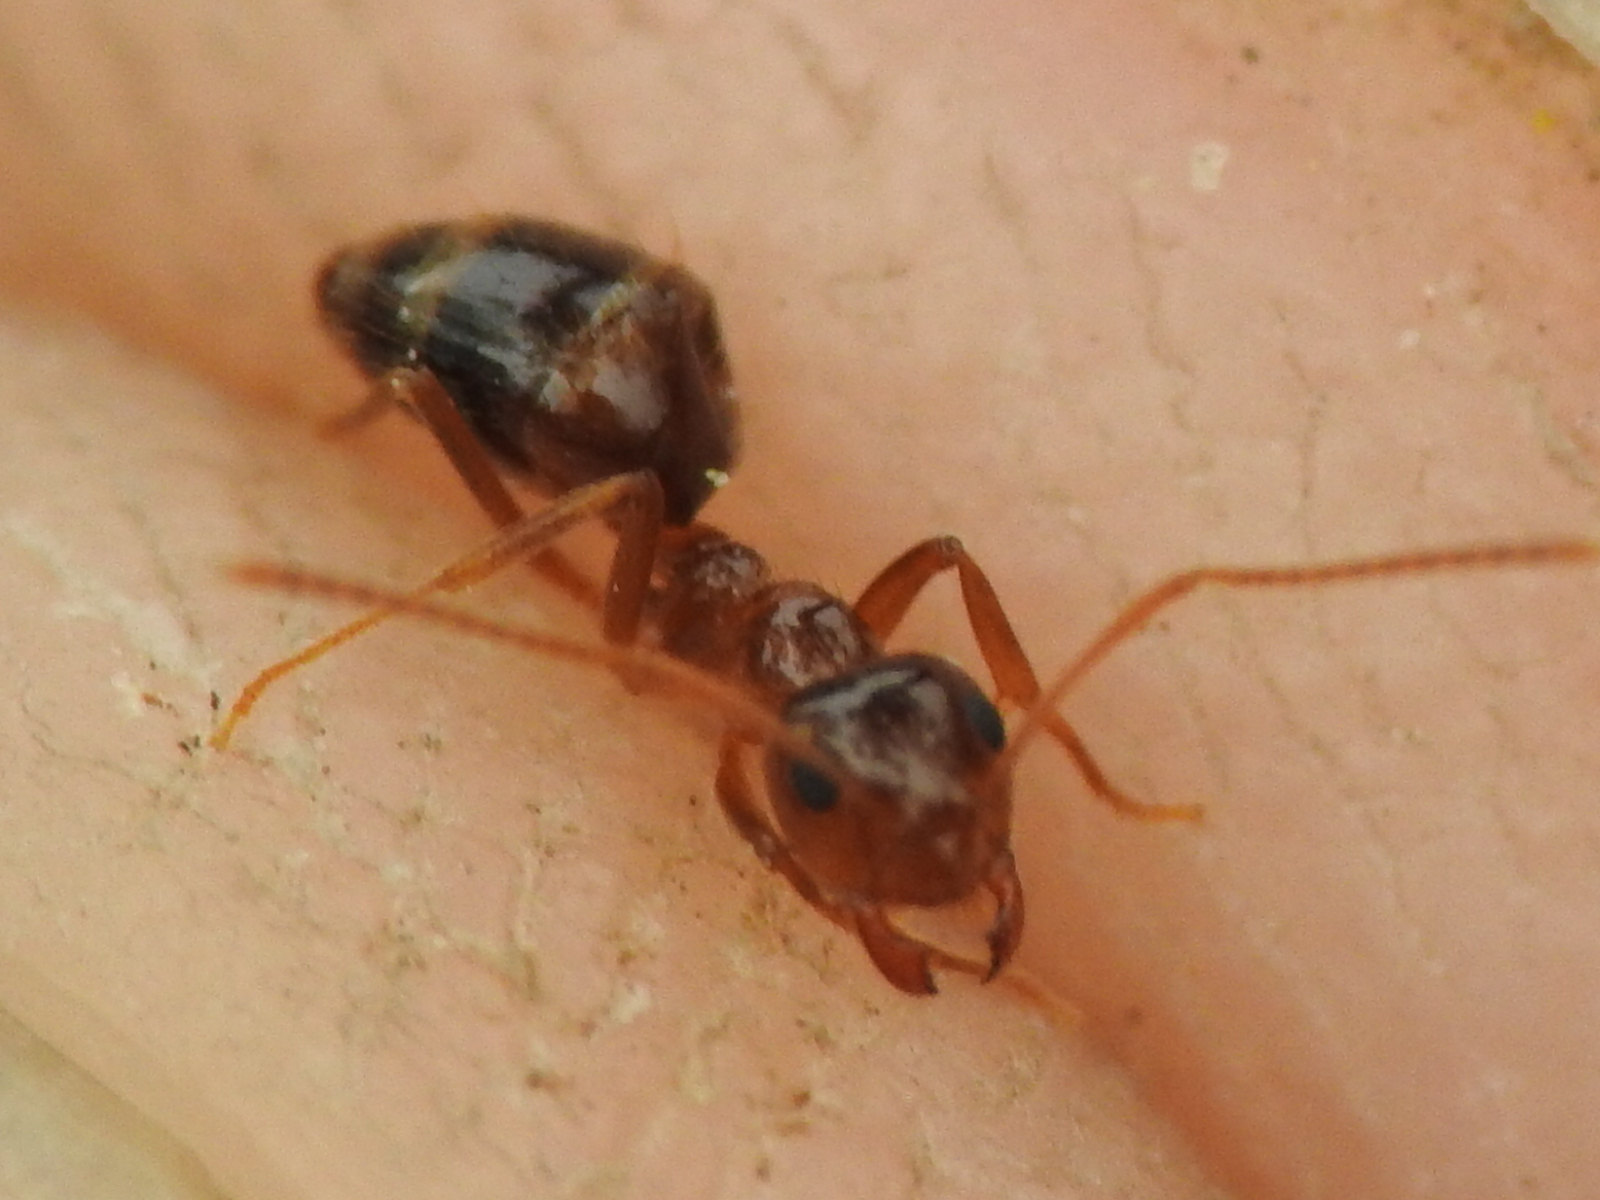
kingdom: Animalia
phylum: Arthropoda
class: Insecta
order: Hymenoptera
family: Formicidae
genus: Prenolepis
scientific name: Prenolepis imparis
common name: Small honey ant
